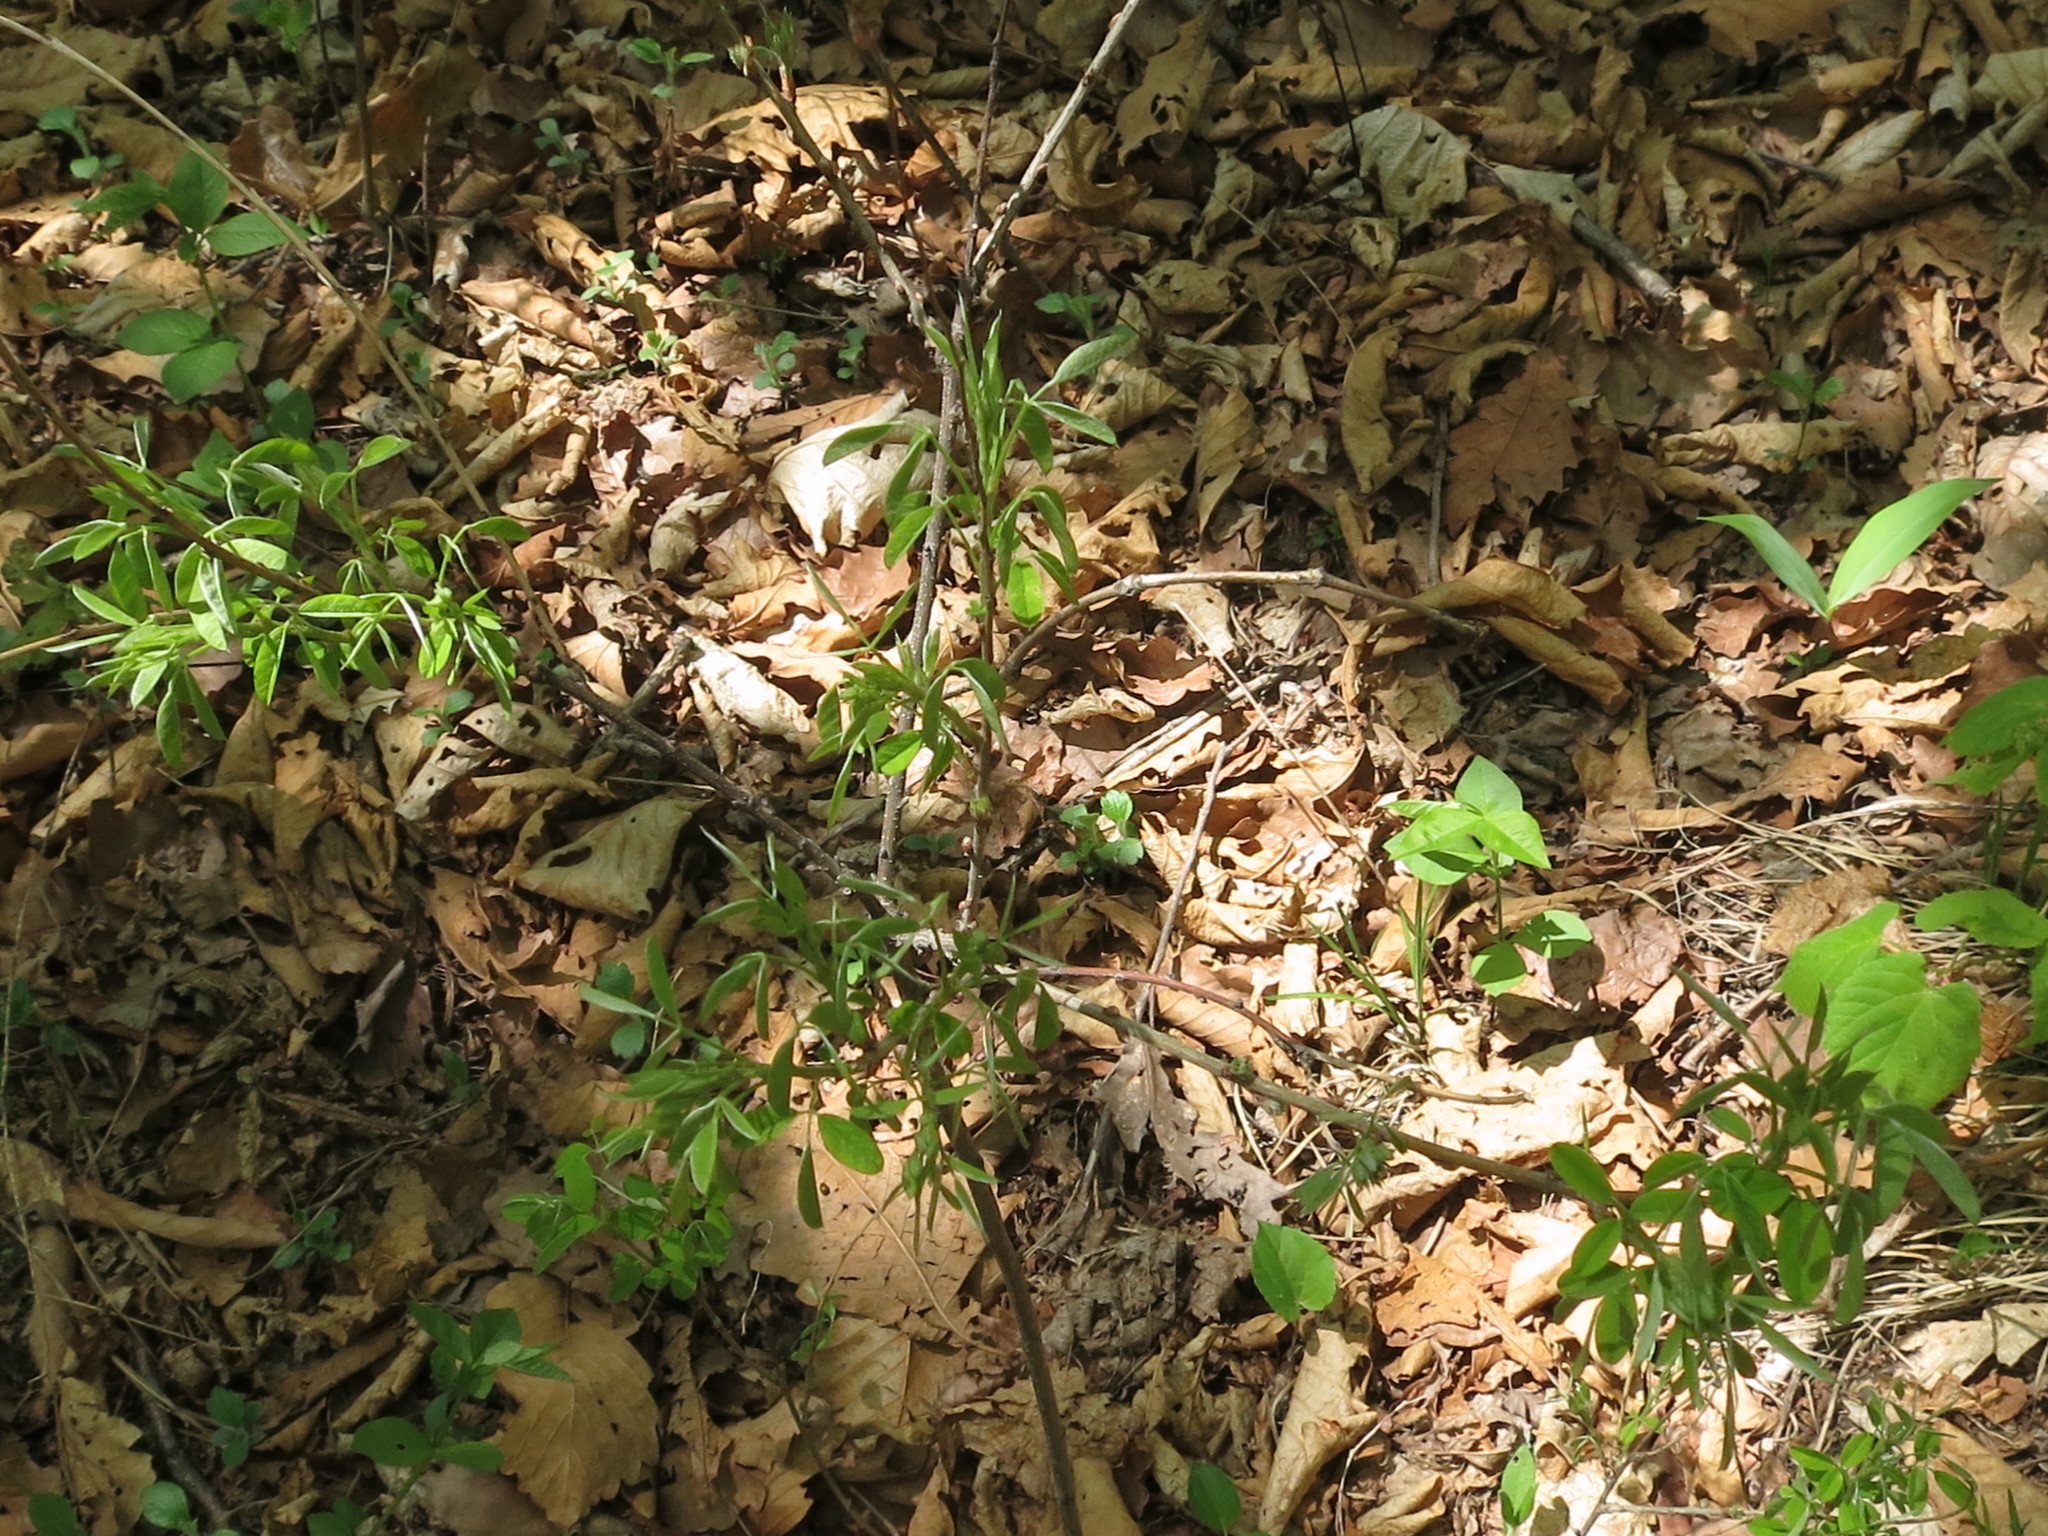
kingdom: Plantae
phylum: Tracheophyta
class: Magnoliopsida
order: Fabales
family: Fabaceae
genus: Lespedeza
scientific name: Lespedeza bicolor
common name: Shrub lespedeza
